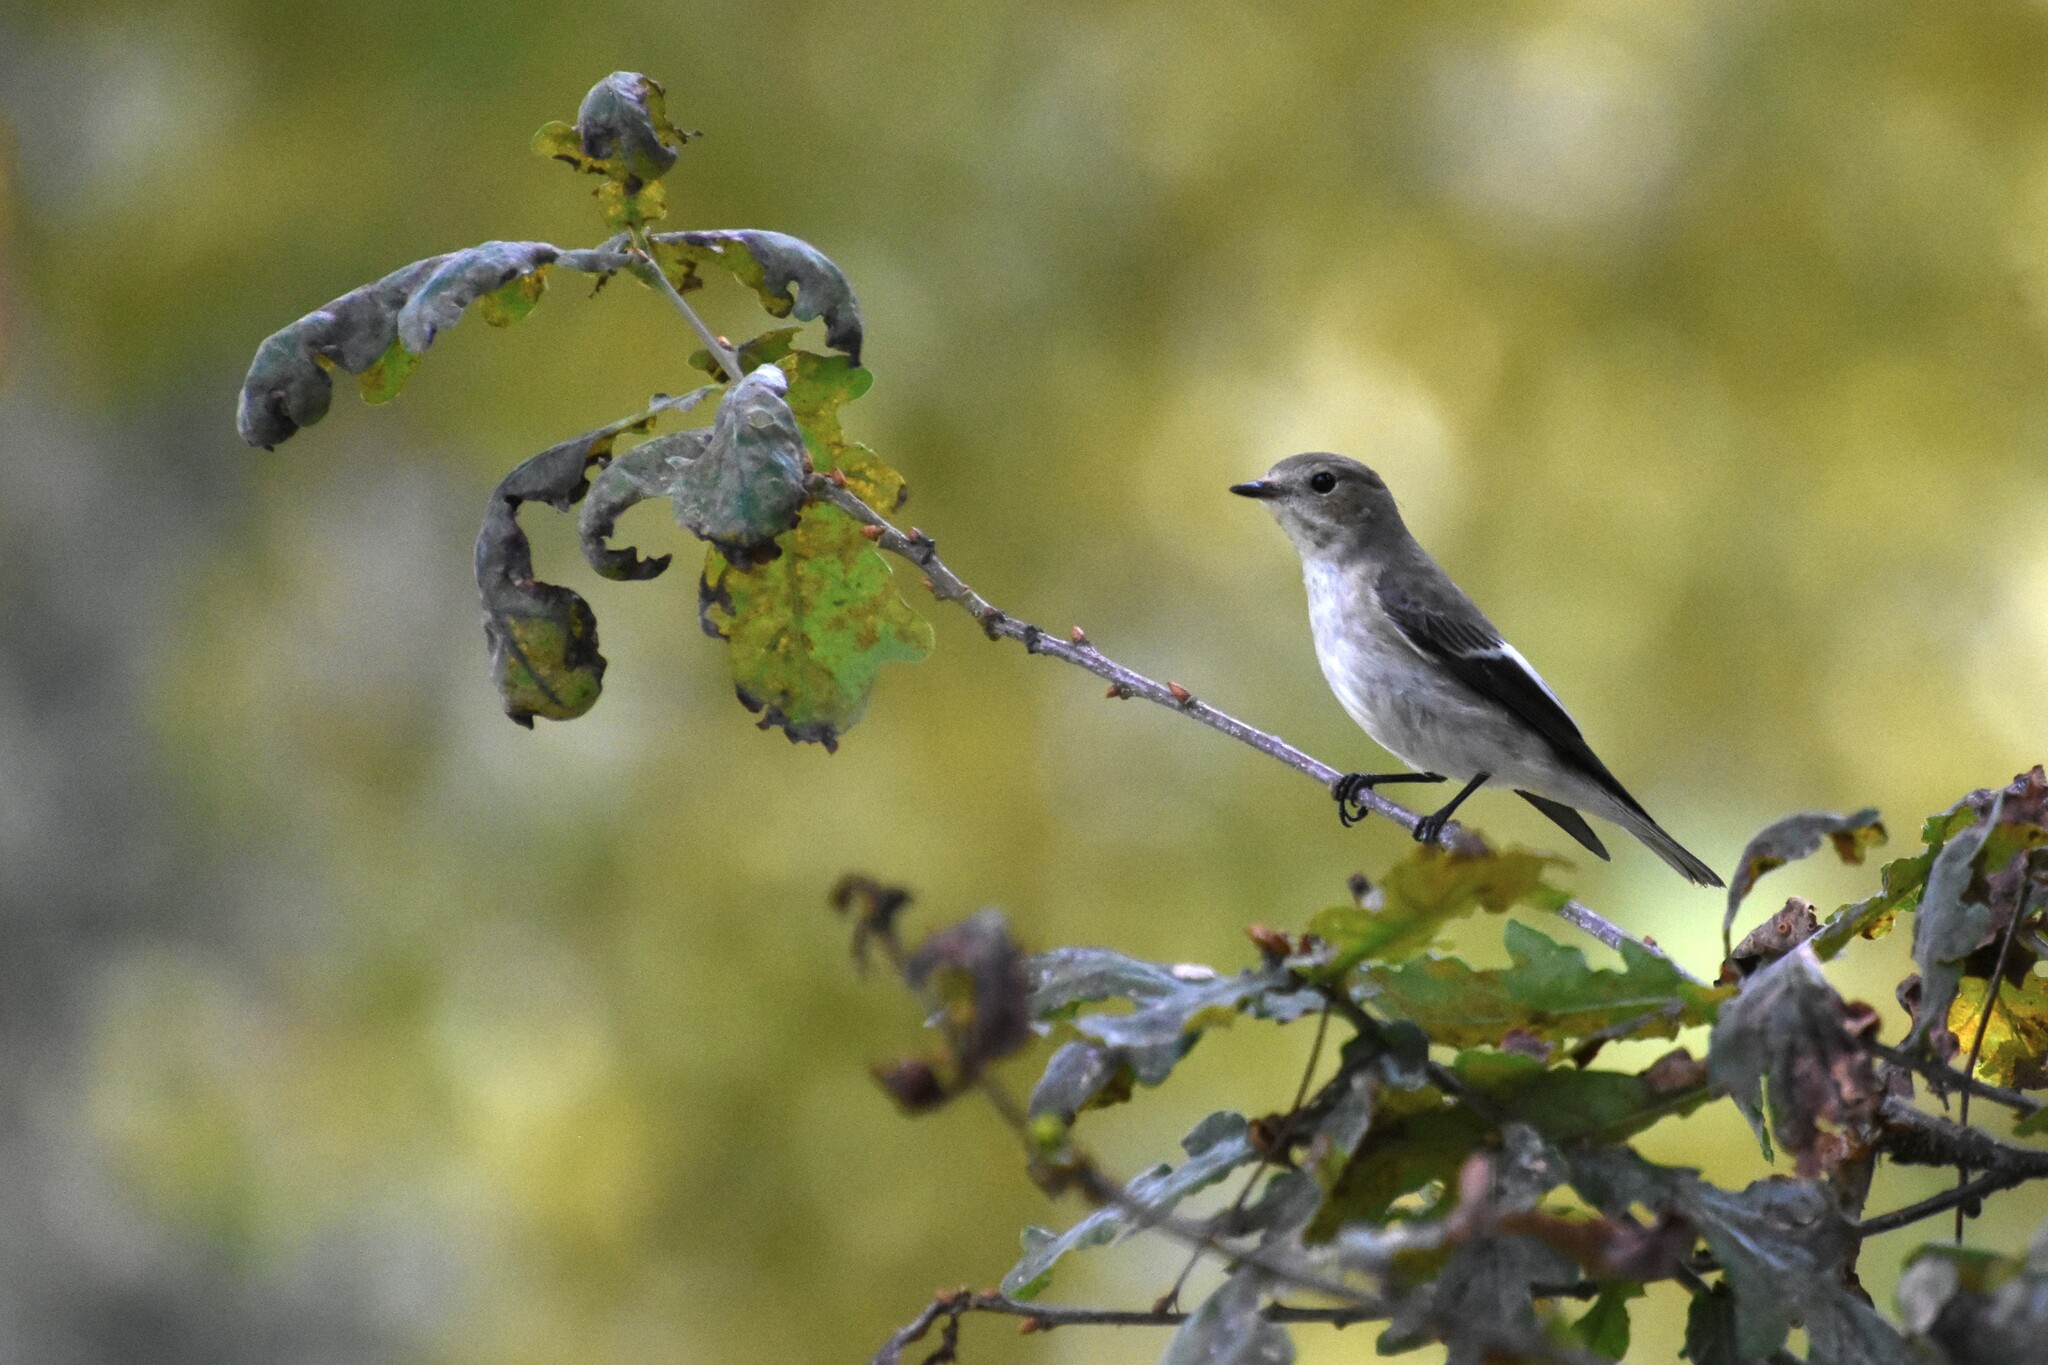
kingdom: Animalia
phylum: Chordata
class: Aves
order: Passeriformes
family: Muscicapidae
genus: Ficedula
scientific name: Ficedula hypoleuca
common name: European pied flycatcher
